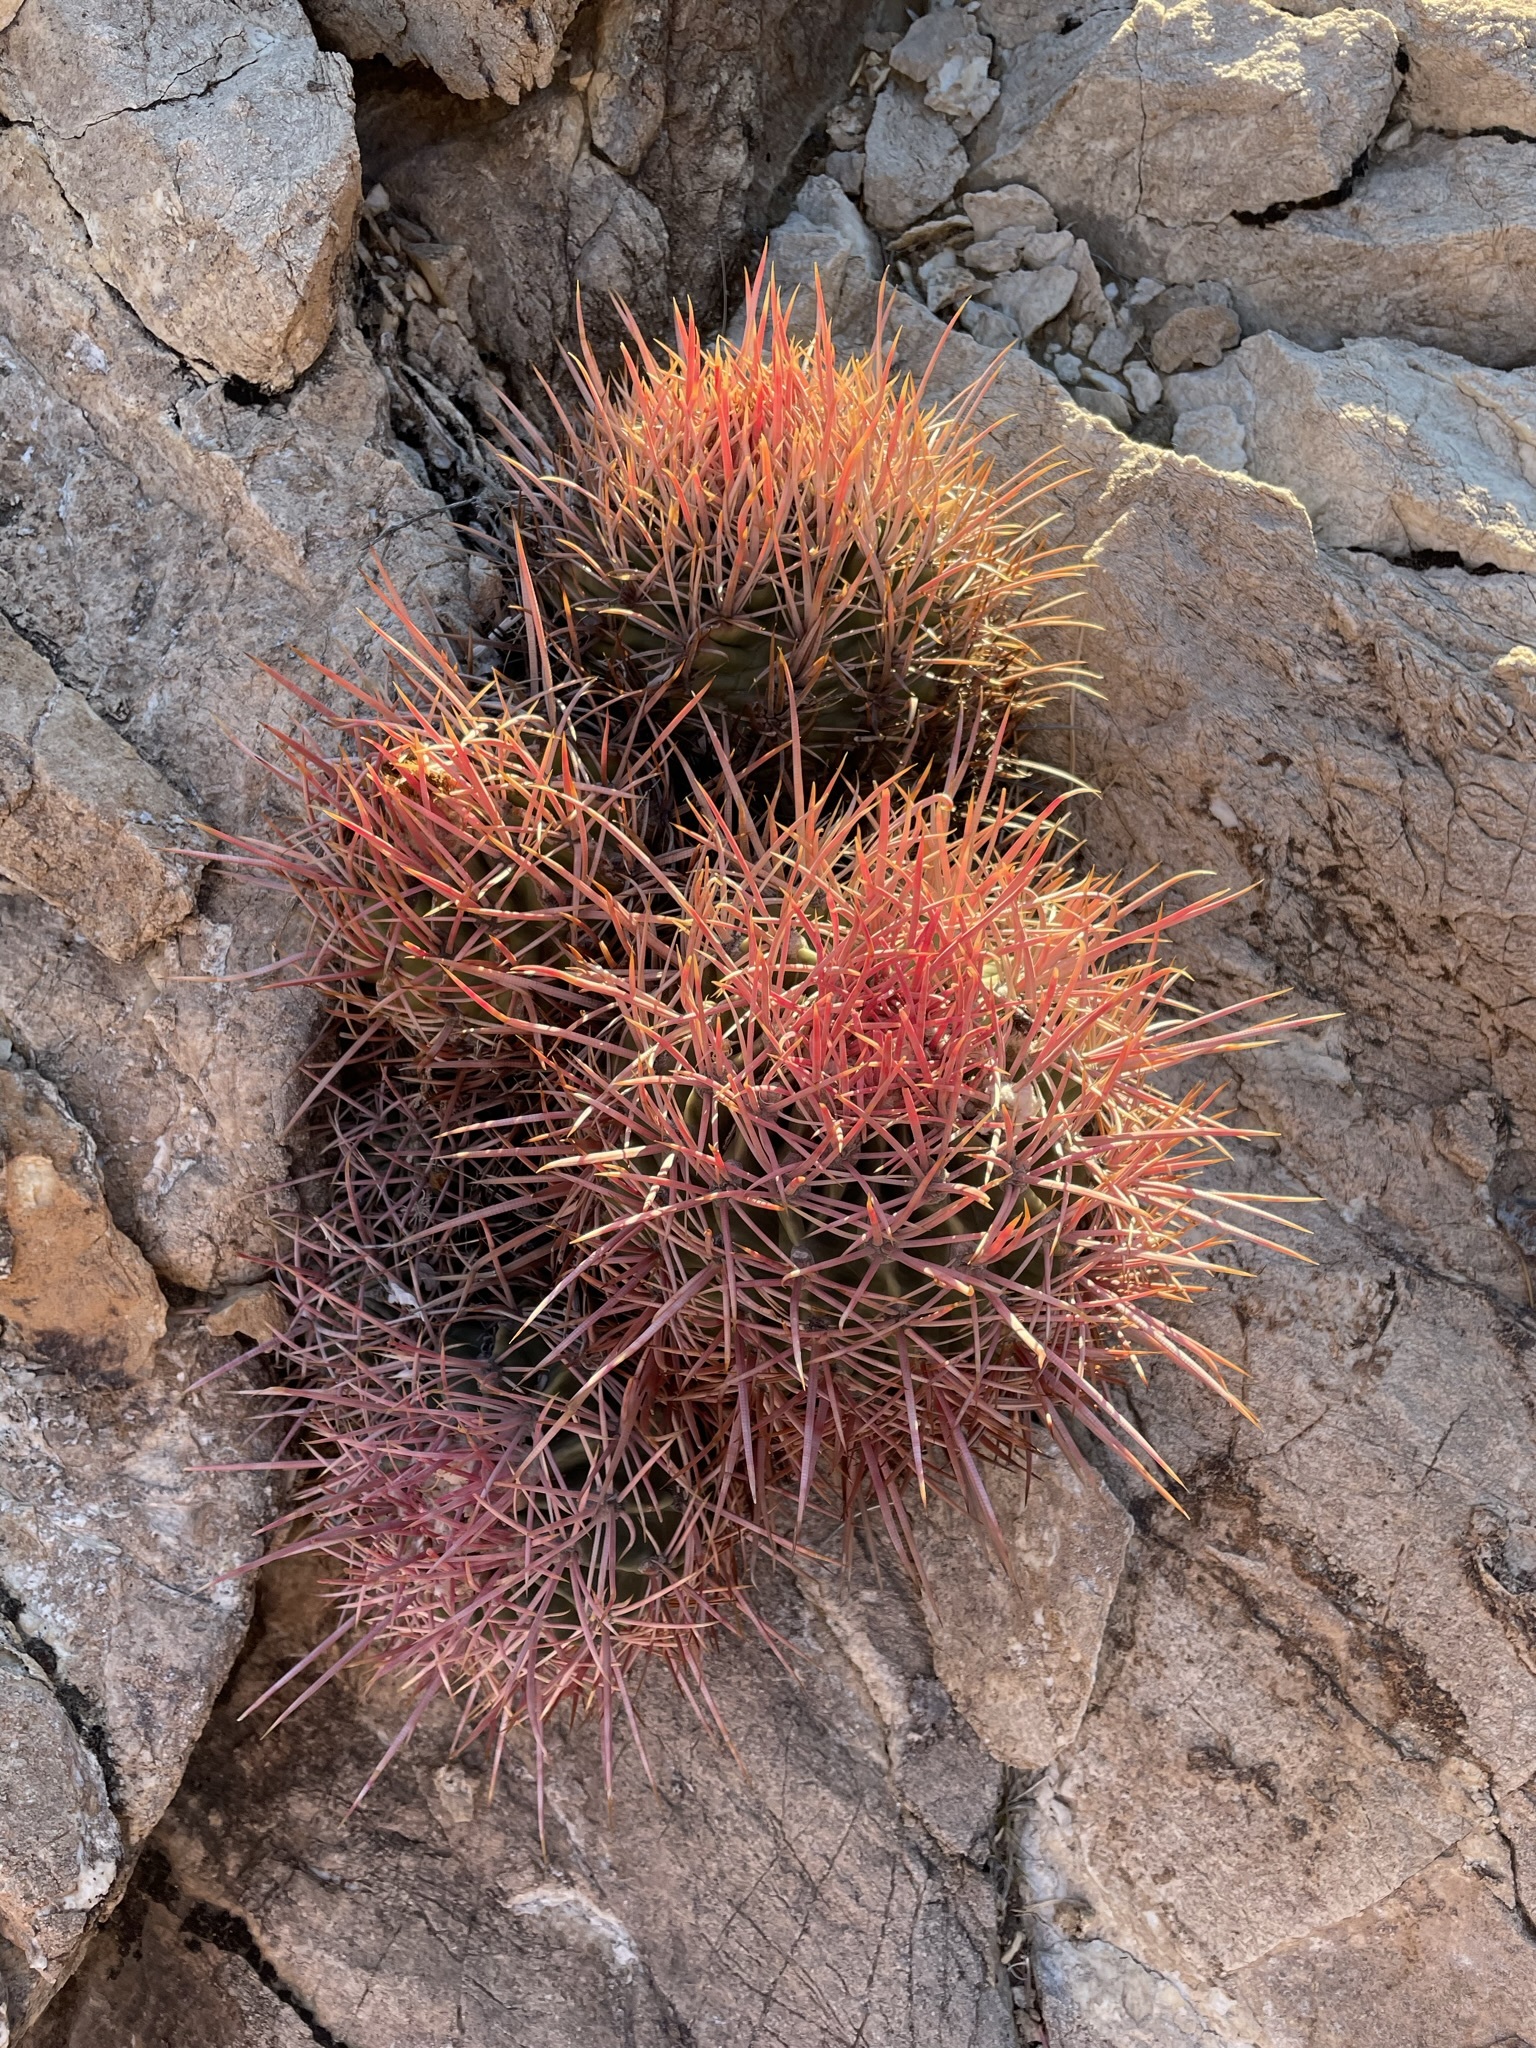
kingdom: Plantae
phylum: Tracheophyta
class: Magnoliopsida
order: Caryophyllales
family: Cactaceae
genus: Echinocactus
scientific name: Echinocactus polycephalus
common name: Cottontop cactus
